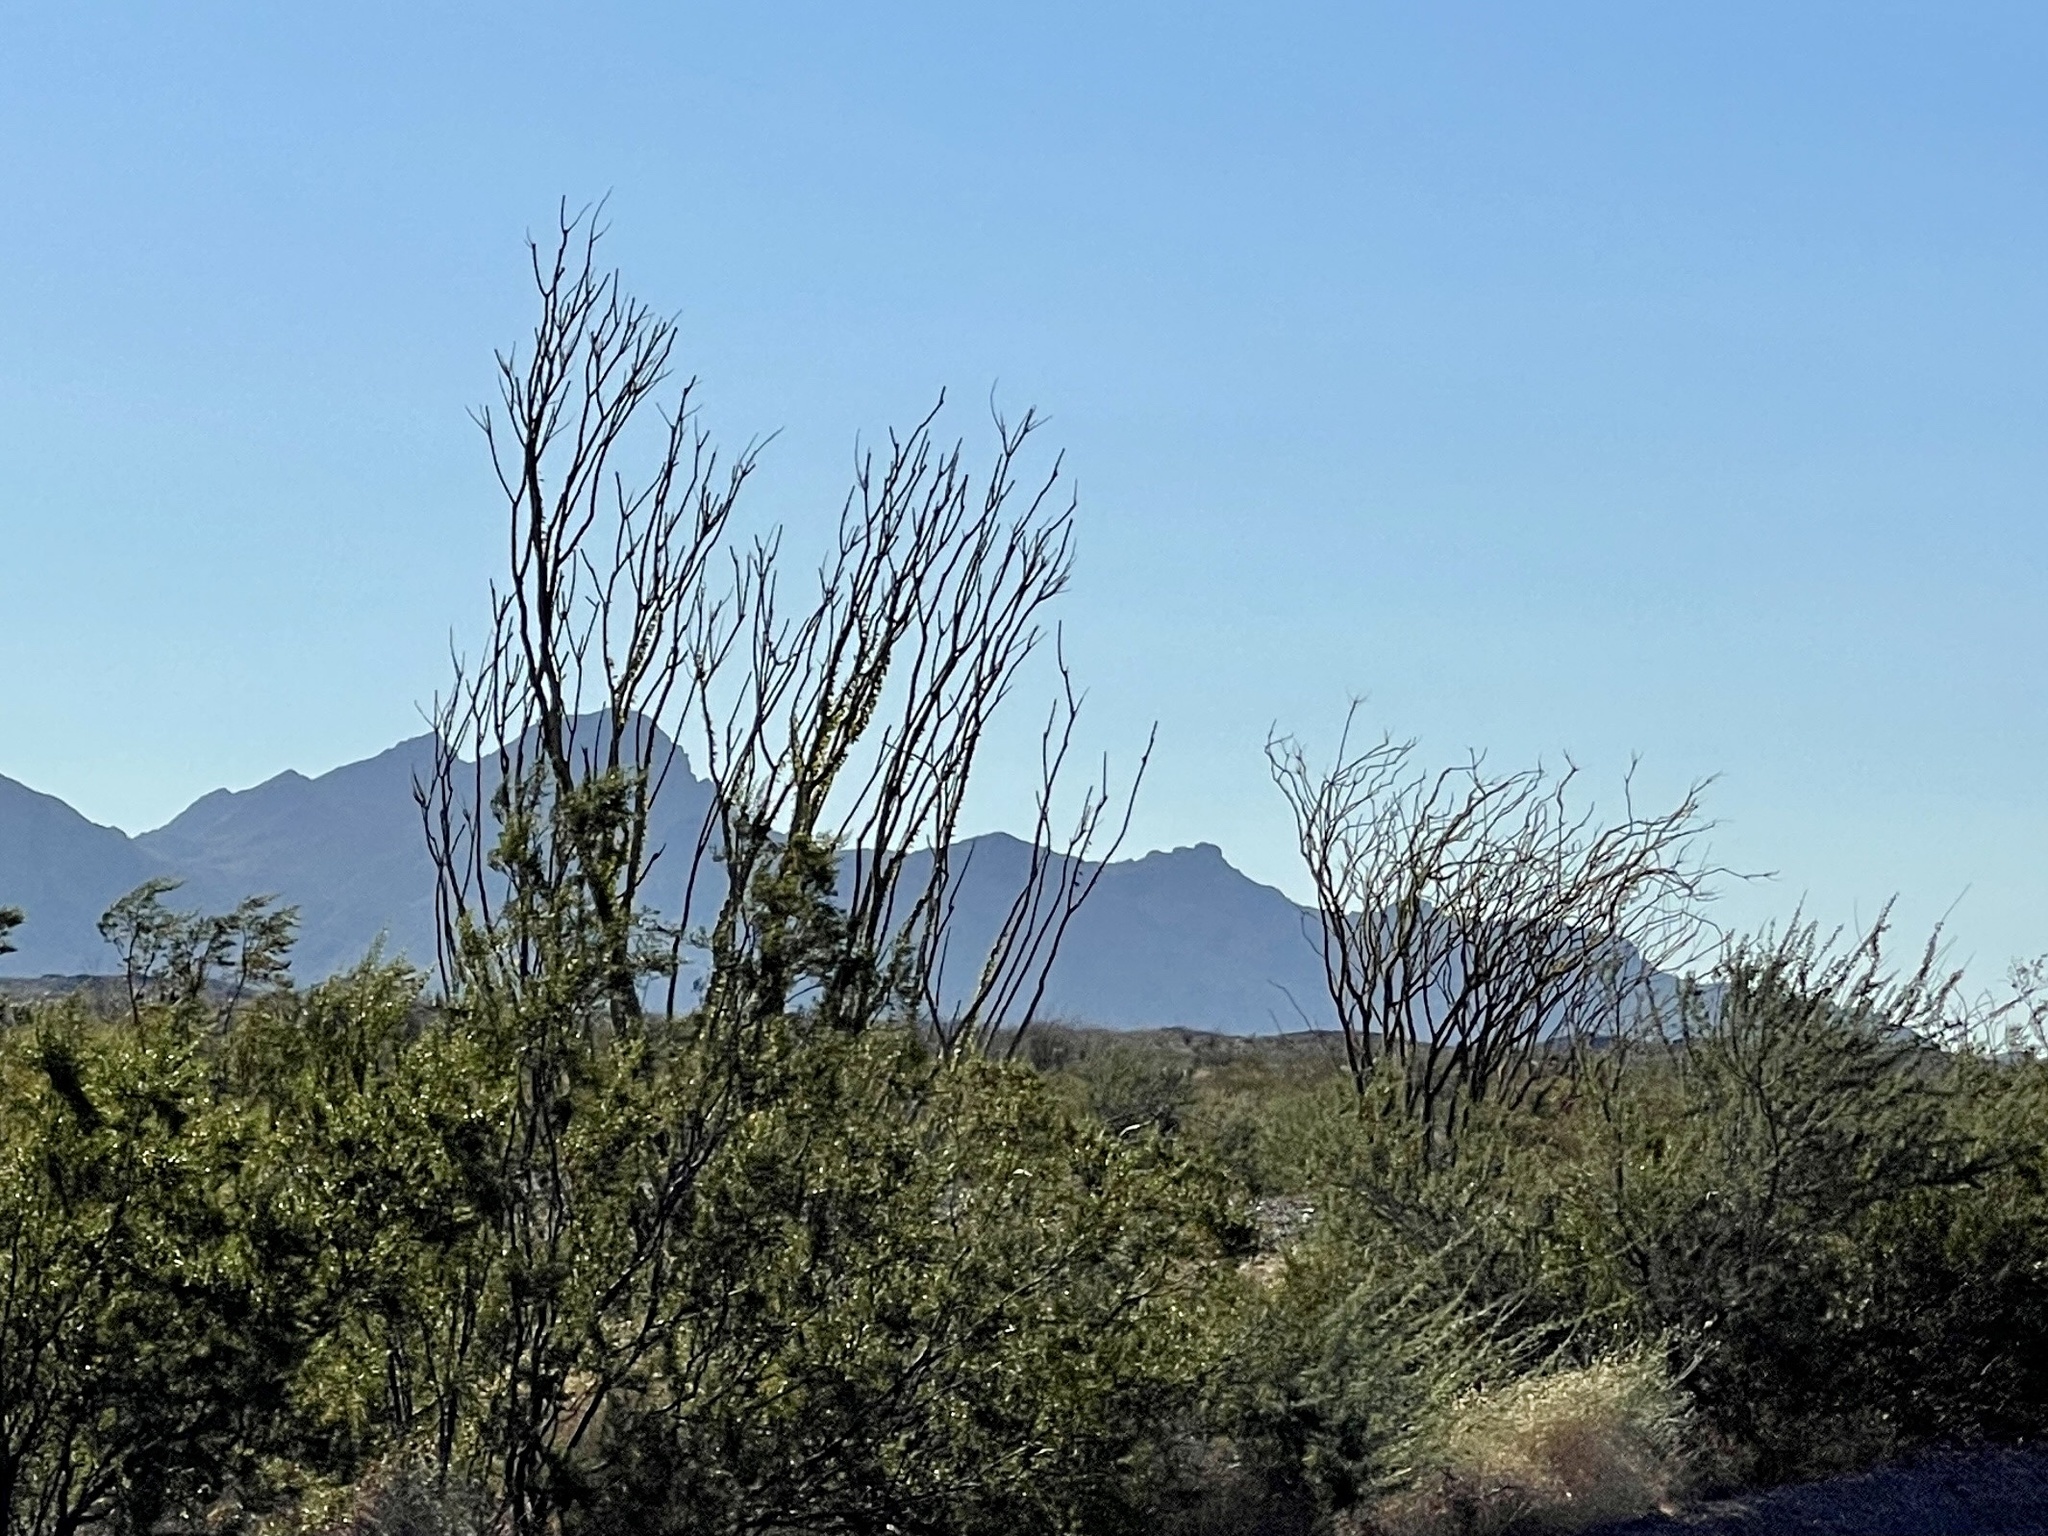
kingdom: Plantae
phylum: Tracheophyta
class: Magnoliopsida
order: Ericales
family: Fouquieriaceae
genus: Fouquieria
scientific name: Fouquieria splendens
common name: Vine-cactus
